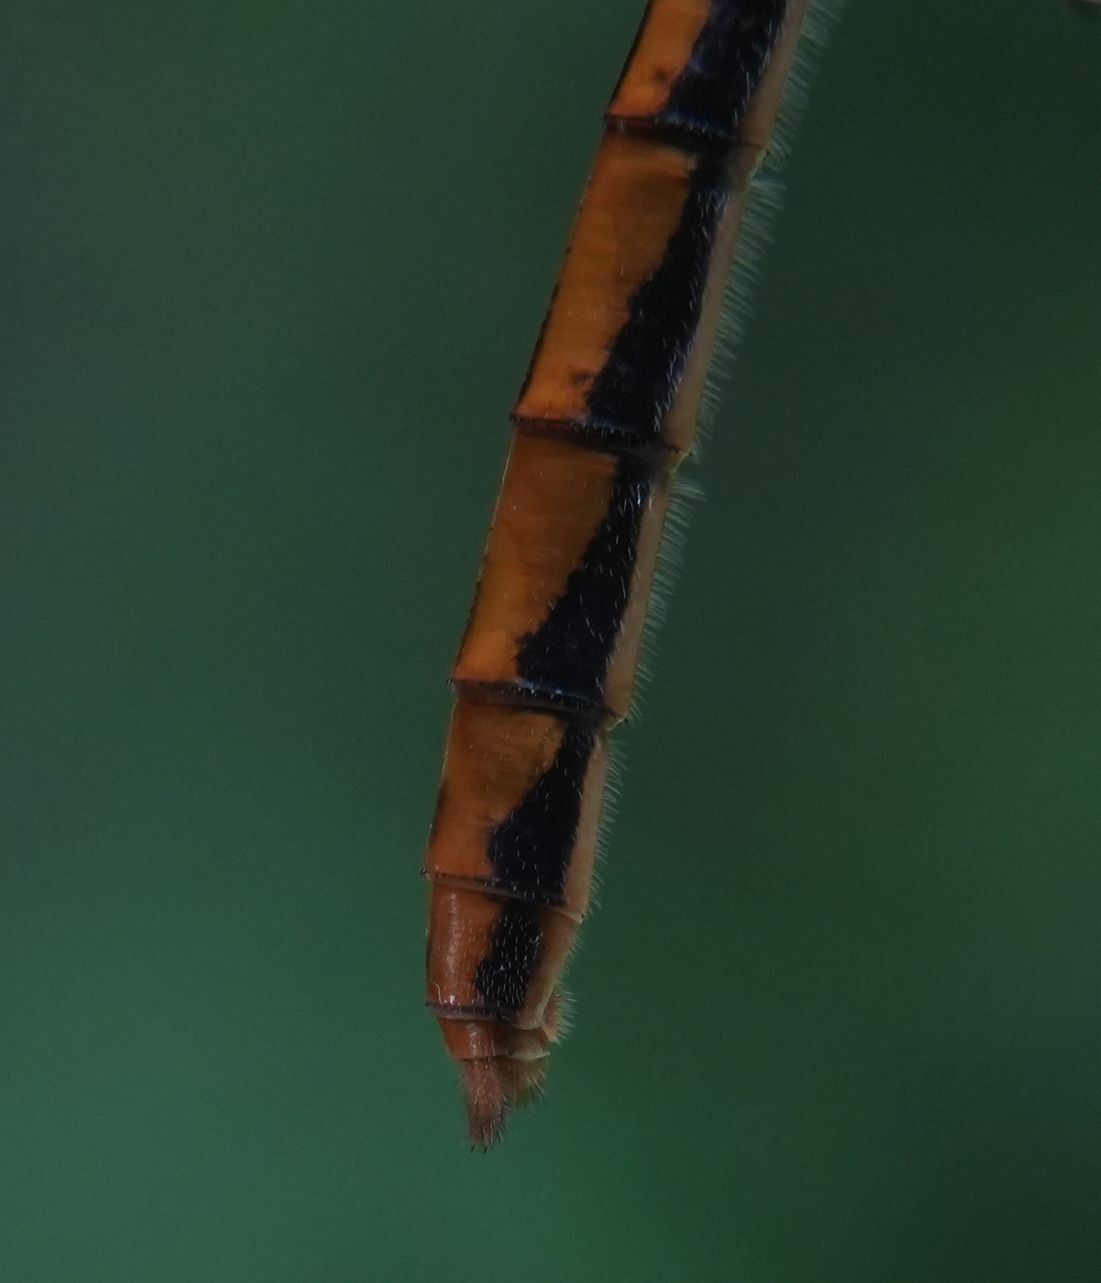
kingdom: Animalia
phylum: Arthropoda
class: Insecta
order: Odonata
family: Libellulidae
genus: Sympetrum
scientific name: Sympetrum obtrusum
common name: White-faced meadowhawk
